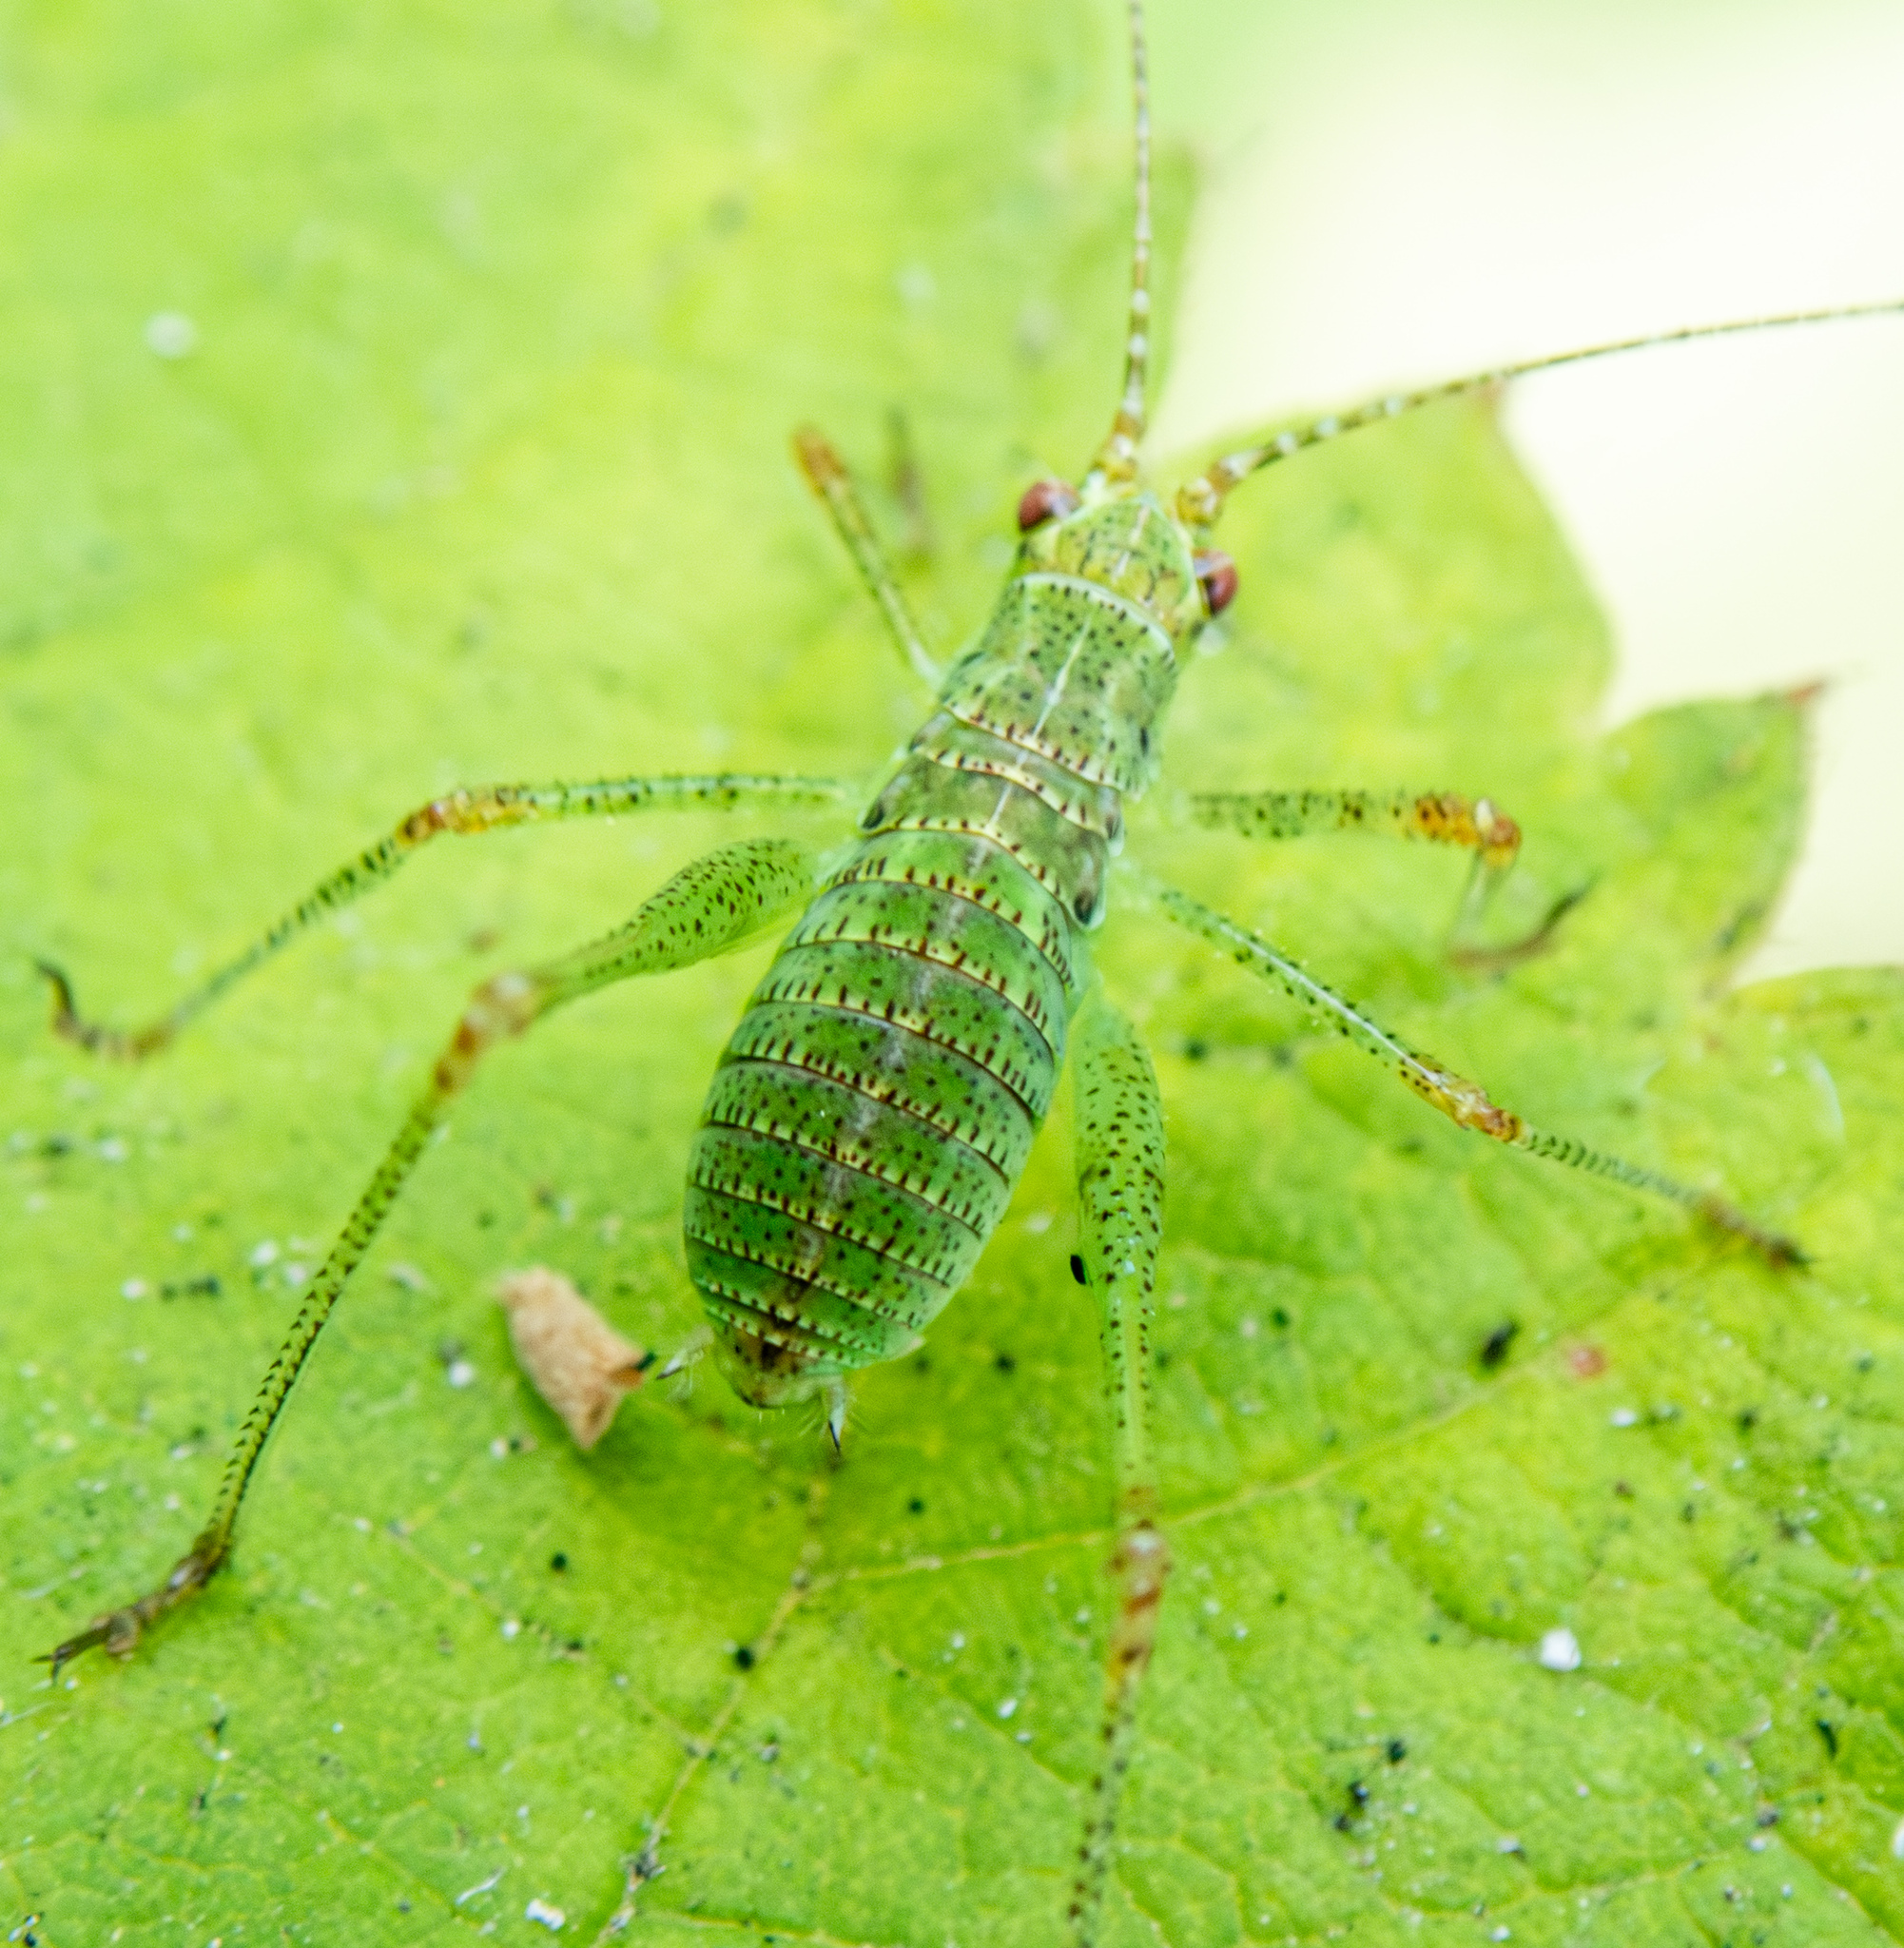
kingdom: Animalia
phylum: Arthropoda
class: Insecta
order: Orthoptera
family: Tettigoniidae
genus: Phaneroptera
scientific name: Phaneroptera nana
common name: Southern sickle bush-cricket
